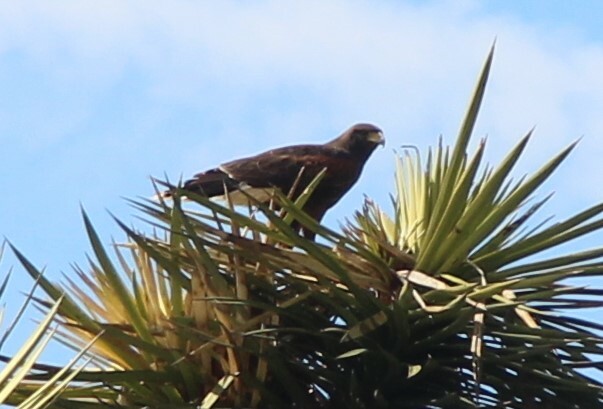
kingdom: Animalia
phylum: Chordata
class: Aves
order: Accipitriformes
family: Accipitridae
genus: Parabuteo
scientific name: Parabuteo unicinctus
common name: Harris's hawk
